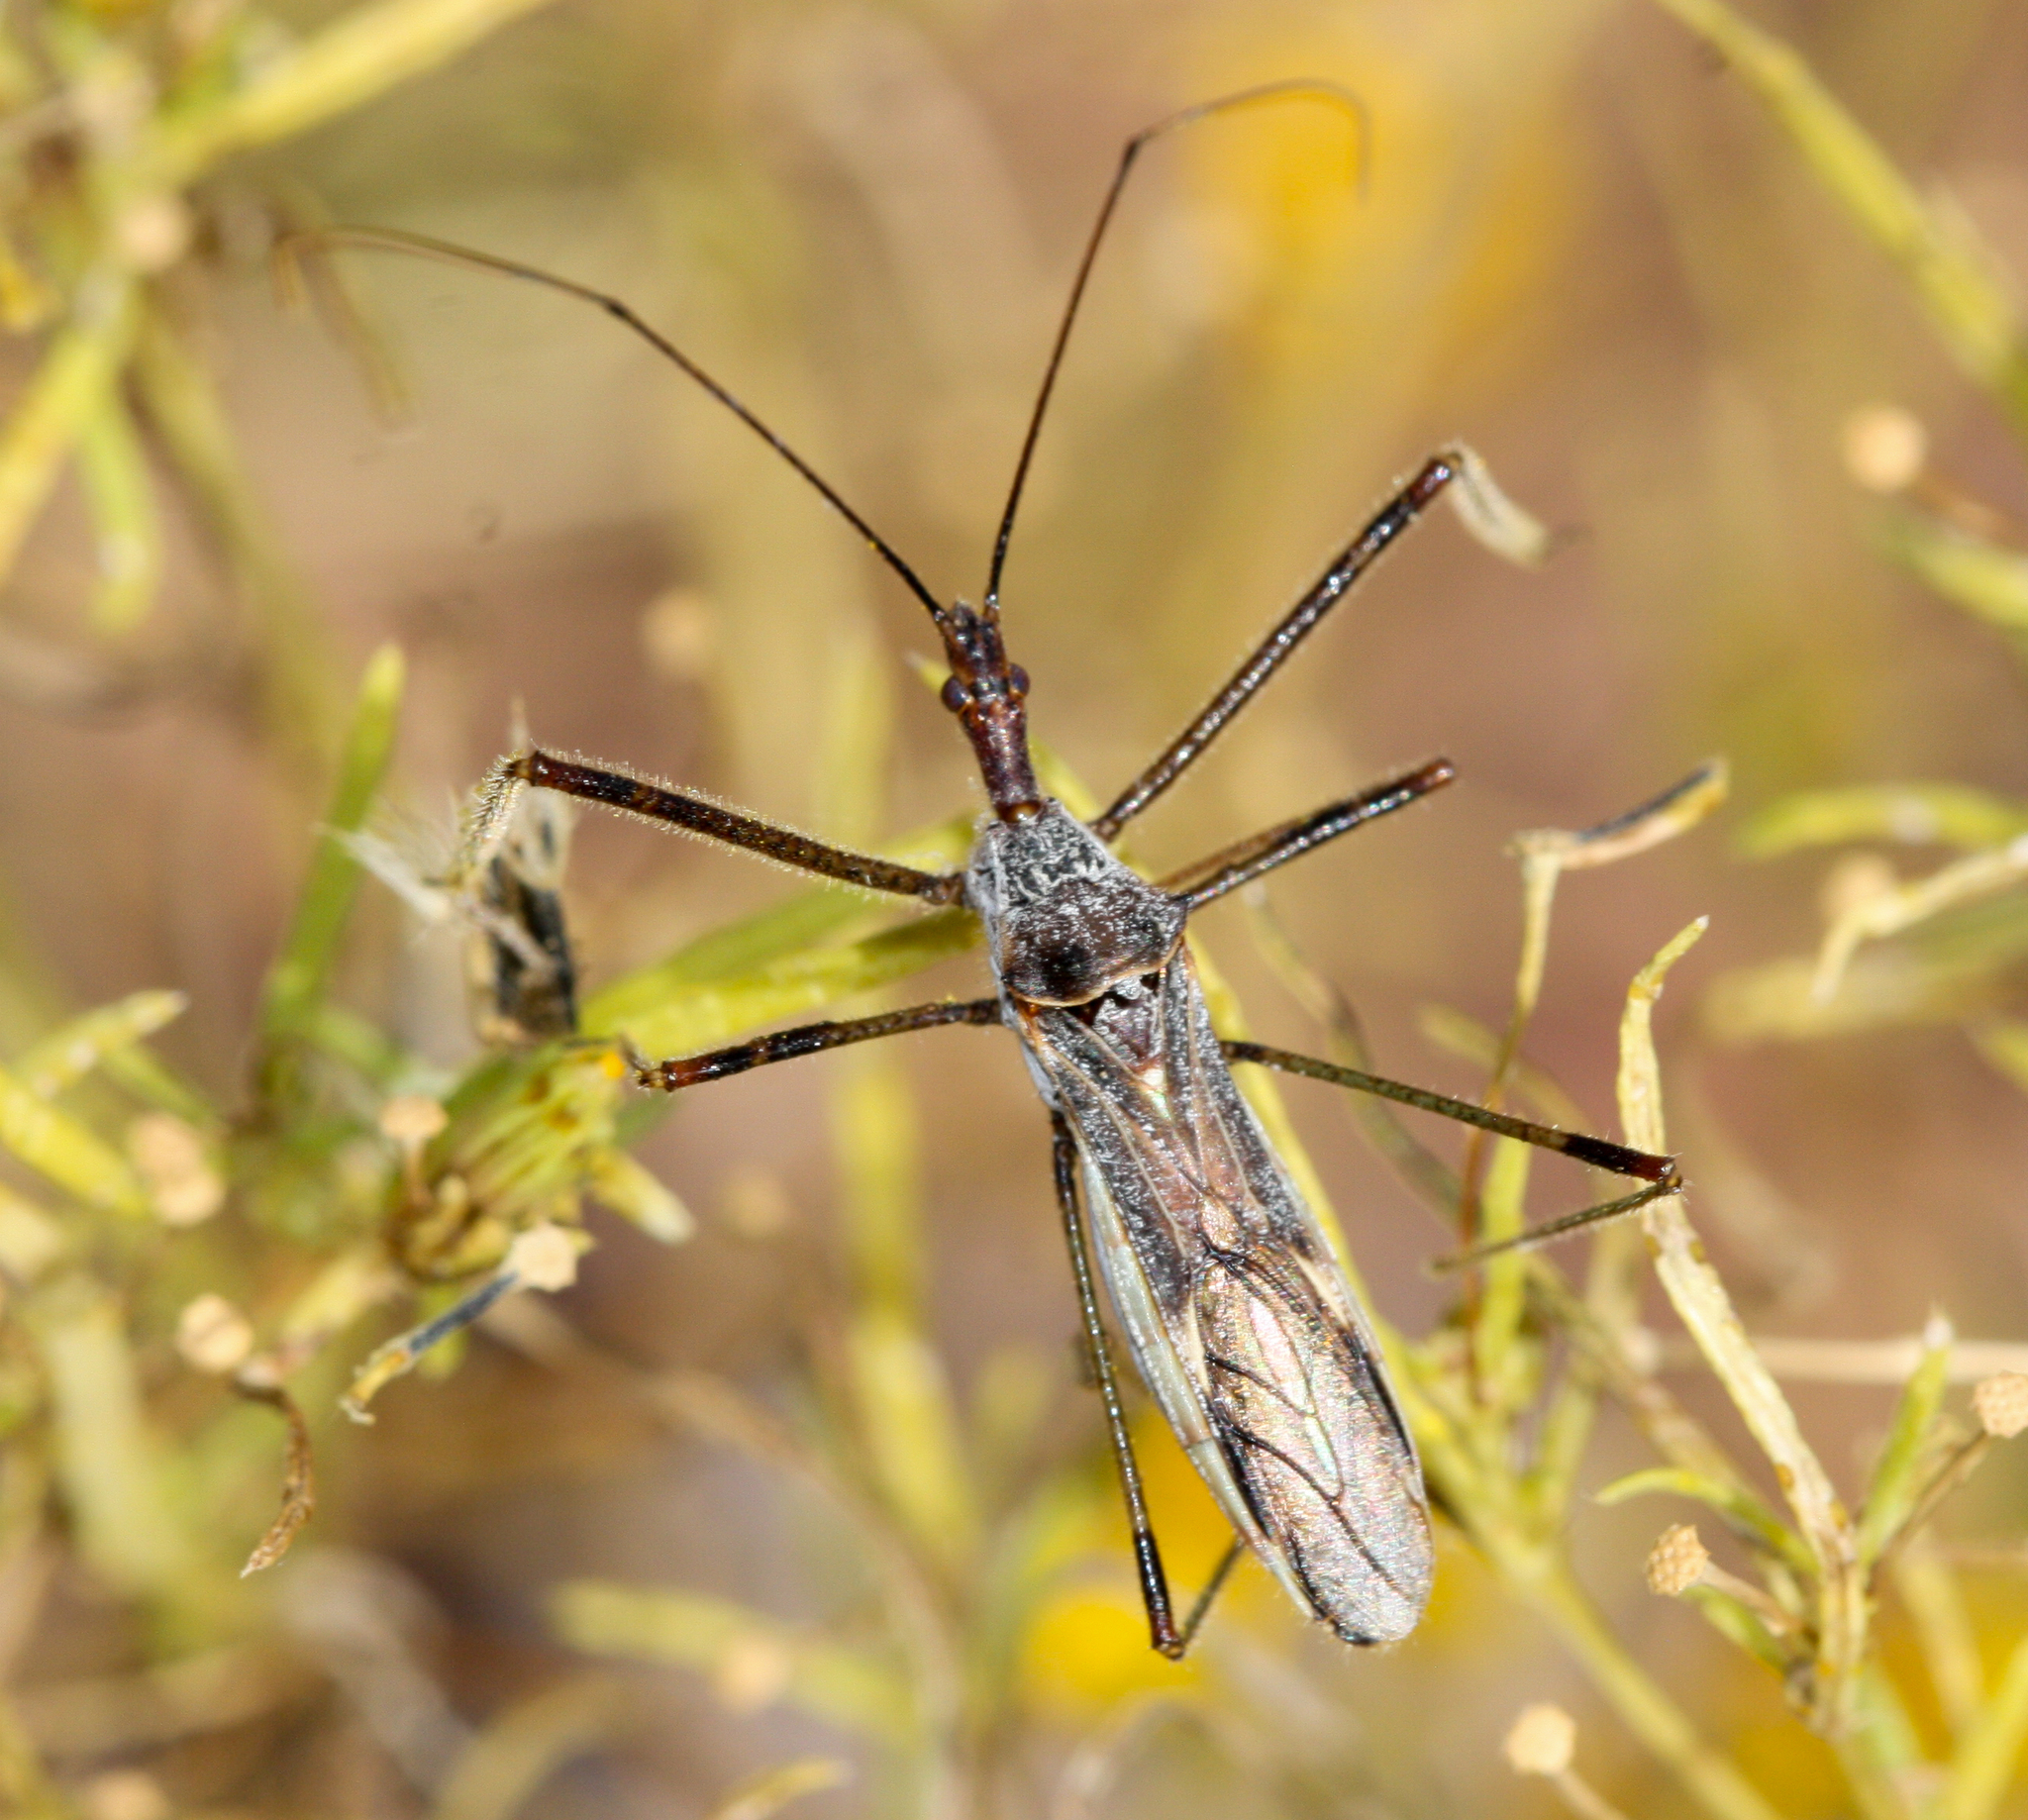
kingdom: Animalia
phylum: Arthropoda
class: Insecta
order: Hemiptera
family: Reduviidae
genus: Zelus
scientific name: Zelus tetracanthus
